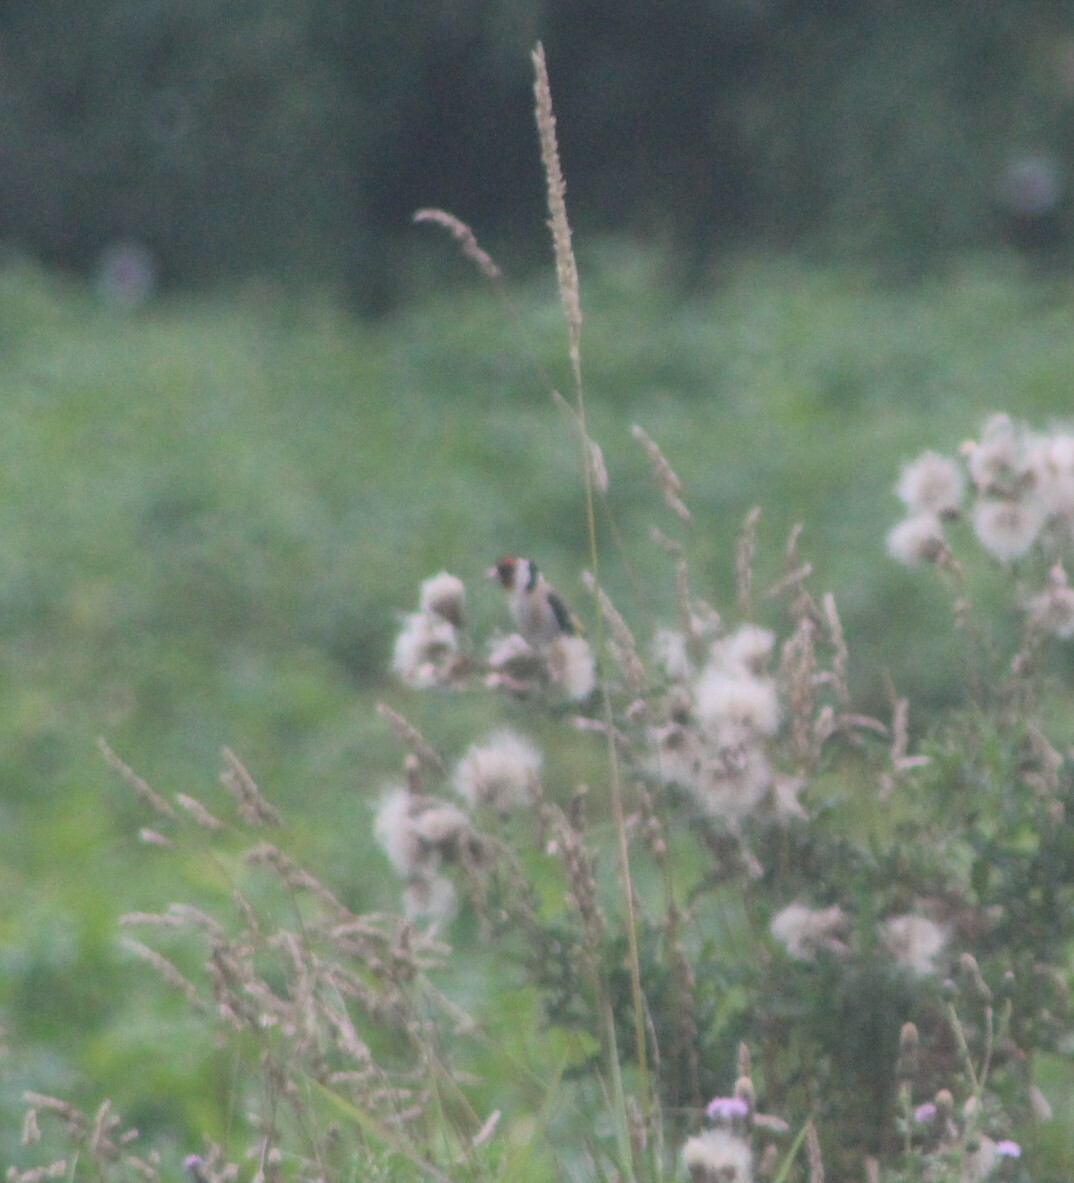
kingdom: Animalia
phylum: Chordata
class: Aves
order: Passeriformes
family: Fringillidae
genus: Carduelis
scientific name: Carduelis carduelis
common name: European goldfinch
